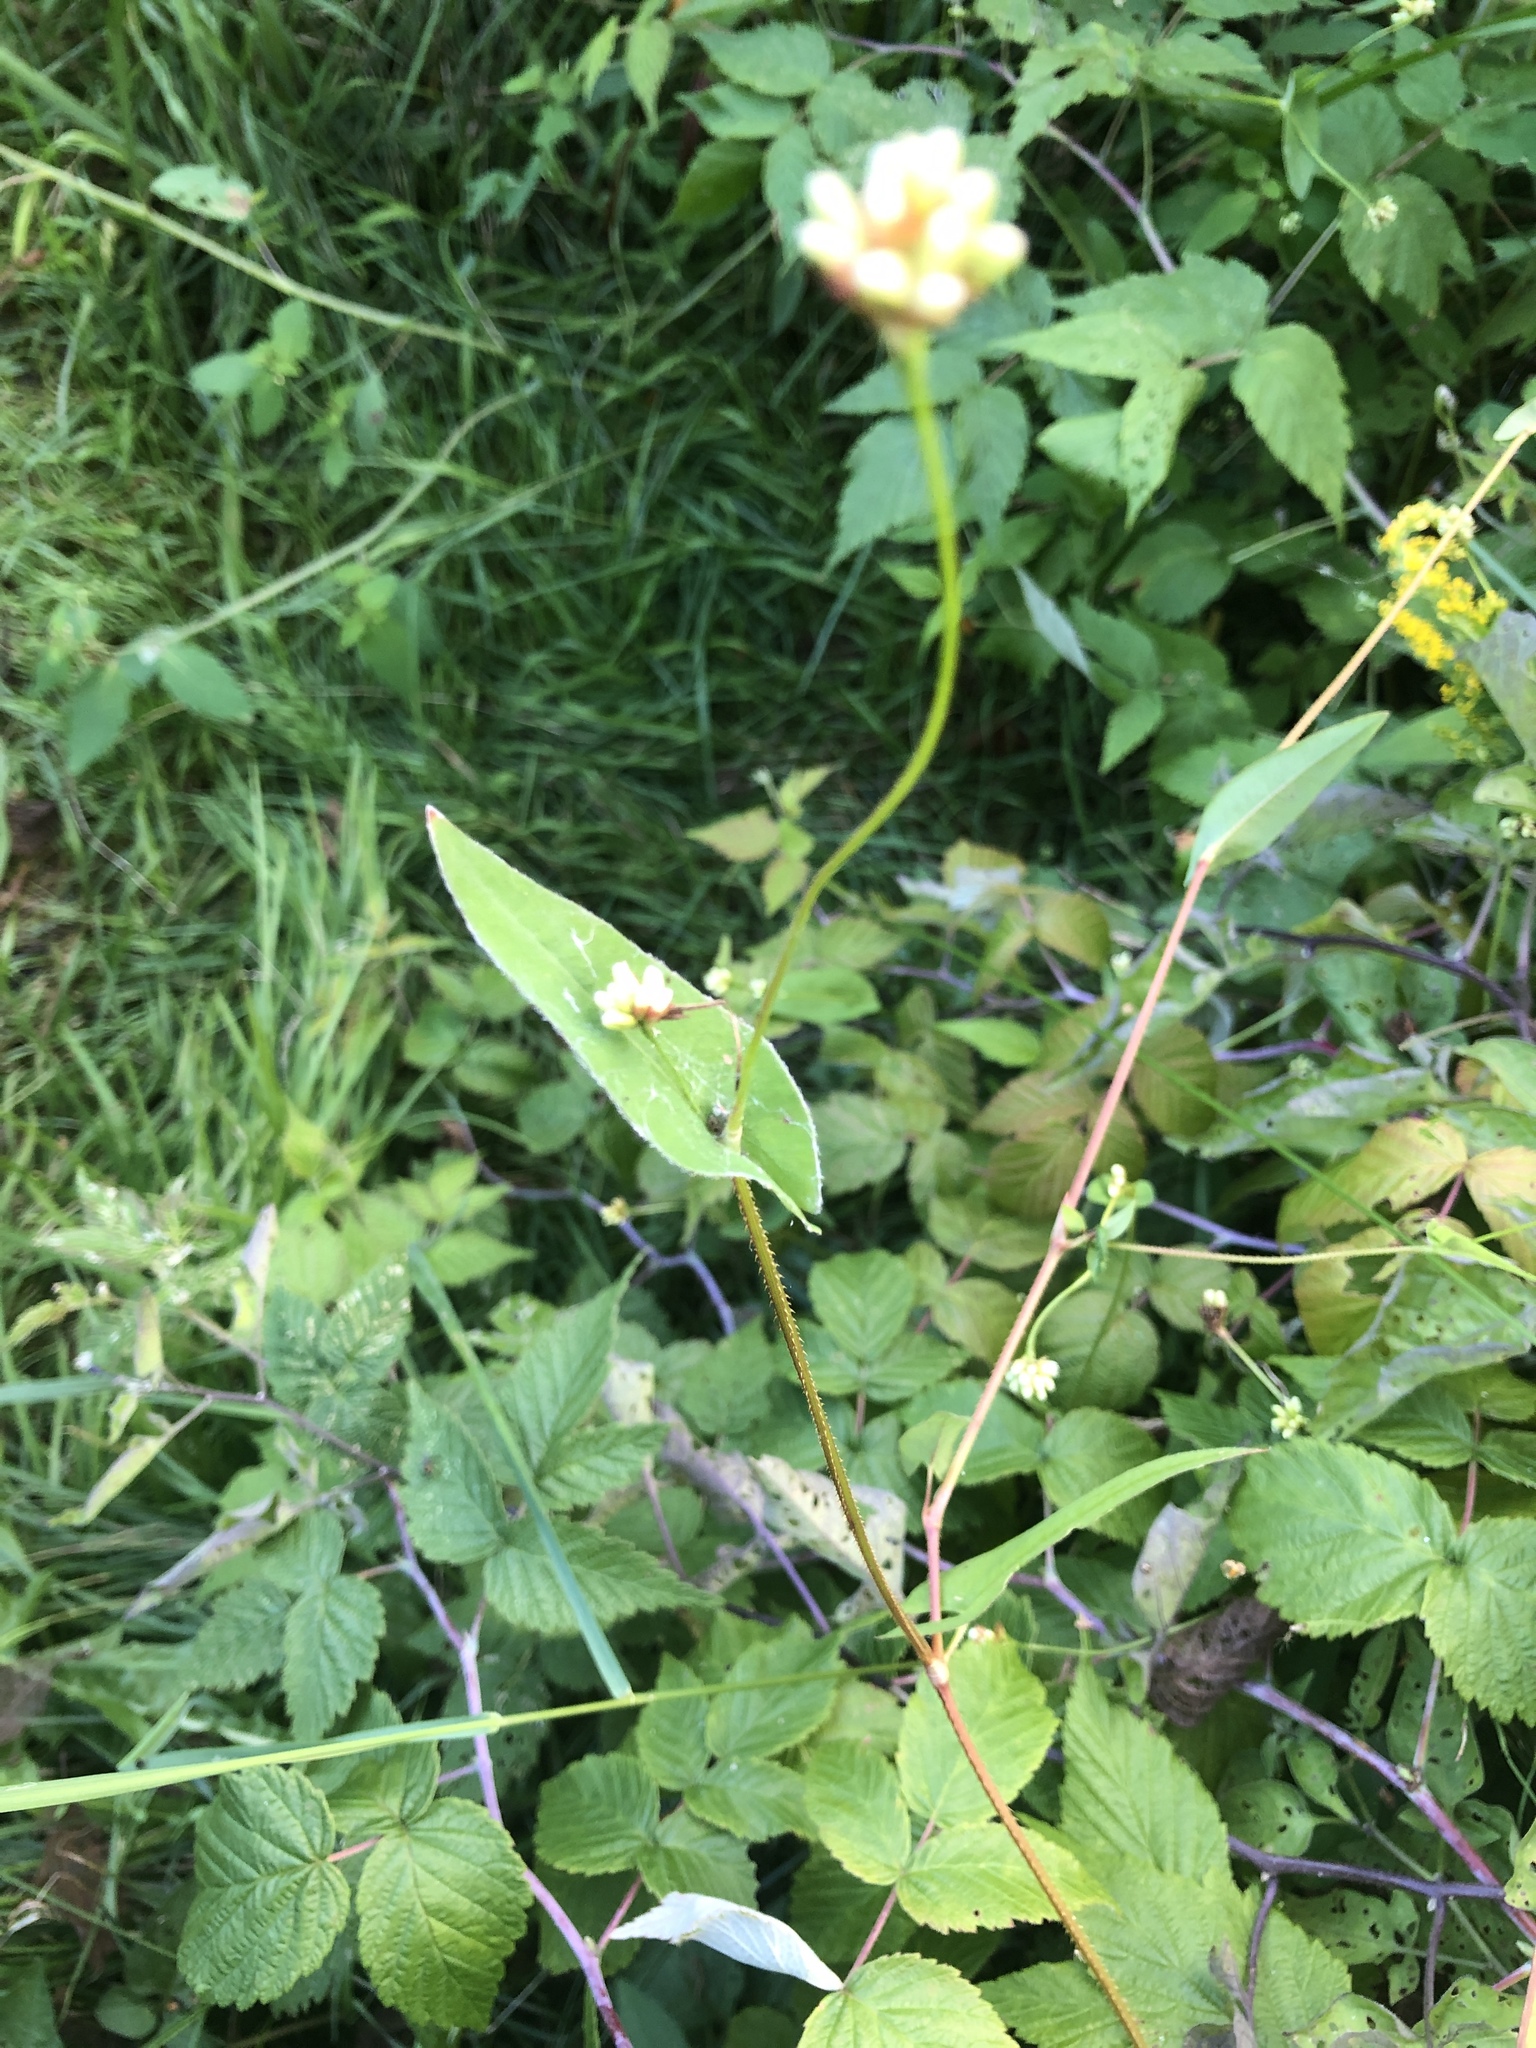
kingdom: Plantae
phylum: Tracheophyta
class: Magnoliopsida
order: Caryophyllales
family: Polygonaceae
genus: Persicaria
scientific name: Persicaria sagittata
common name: American tearthumb
